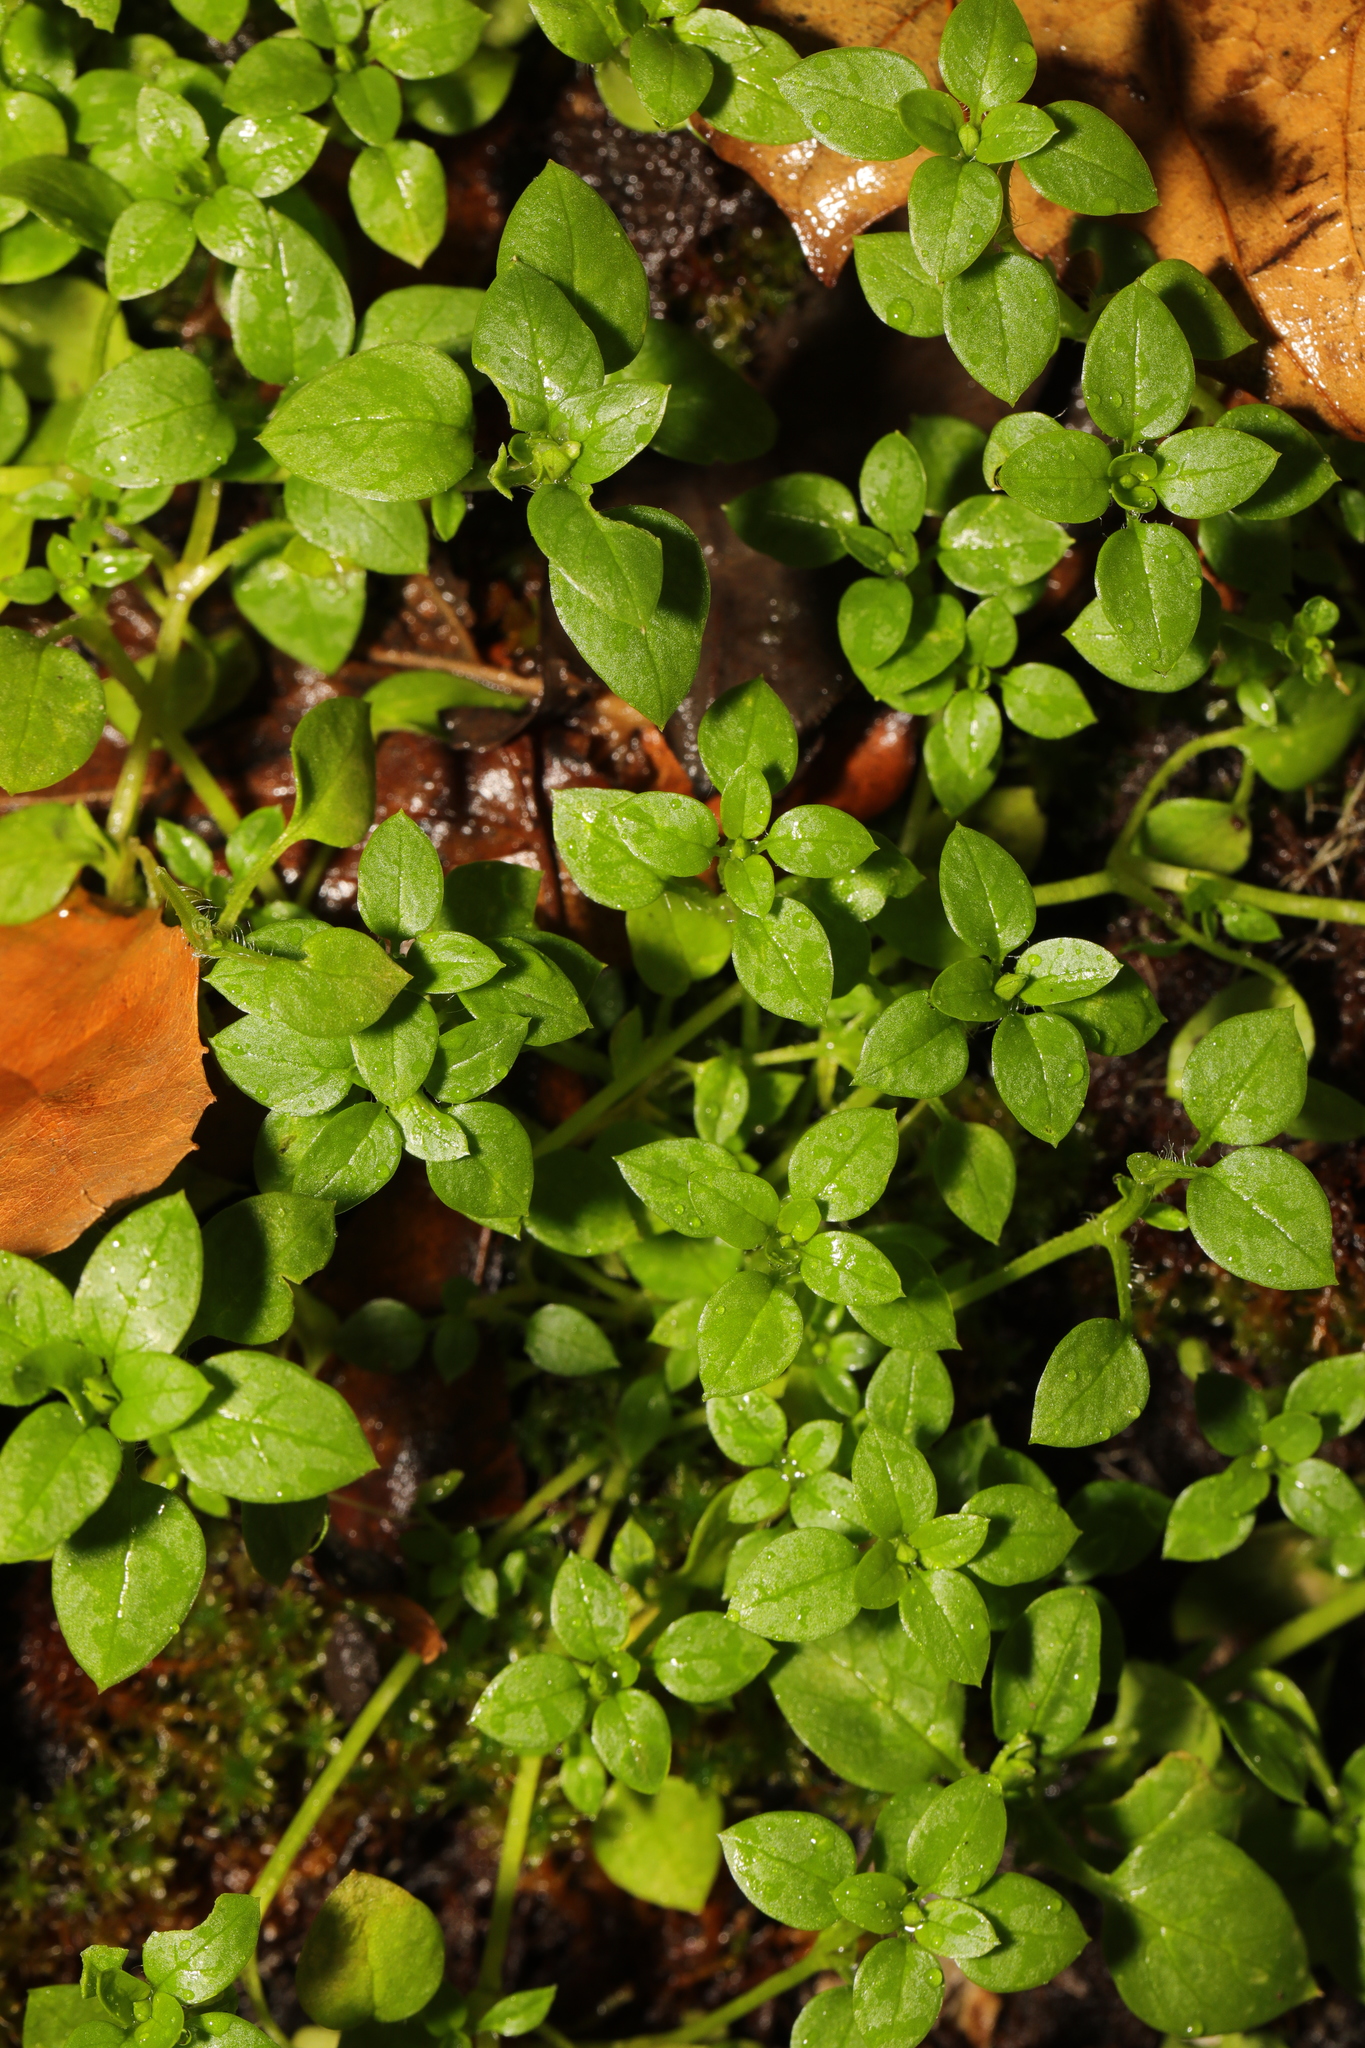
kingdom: Plantae
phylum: Tracheophyta
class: Magnoliopsida
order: Caryophyllales
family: Caryophyllaceae
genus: Stellaria
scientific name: Stellaria media
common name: Common chickweed
